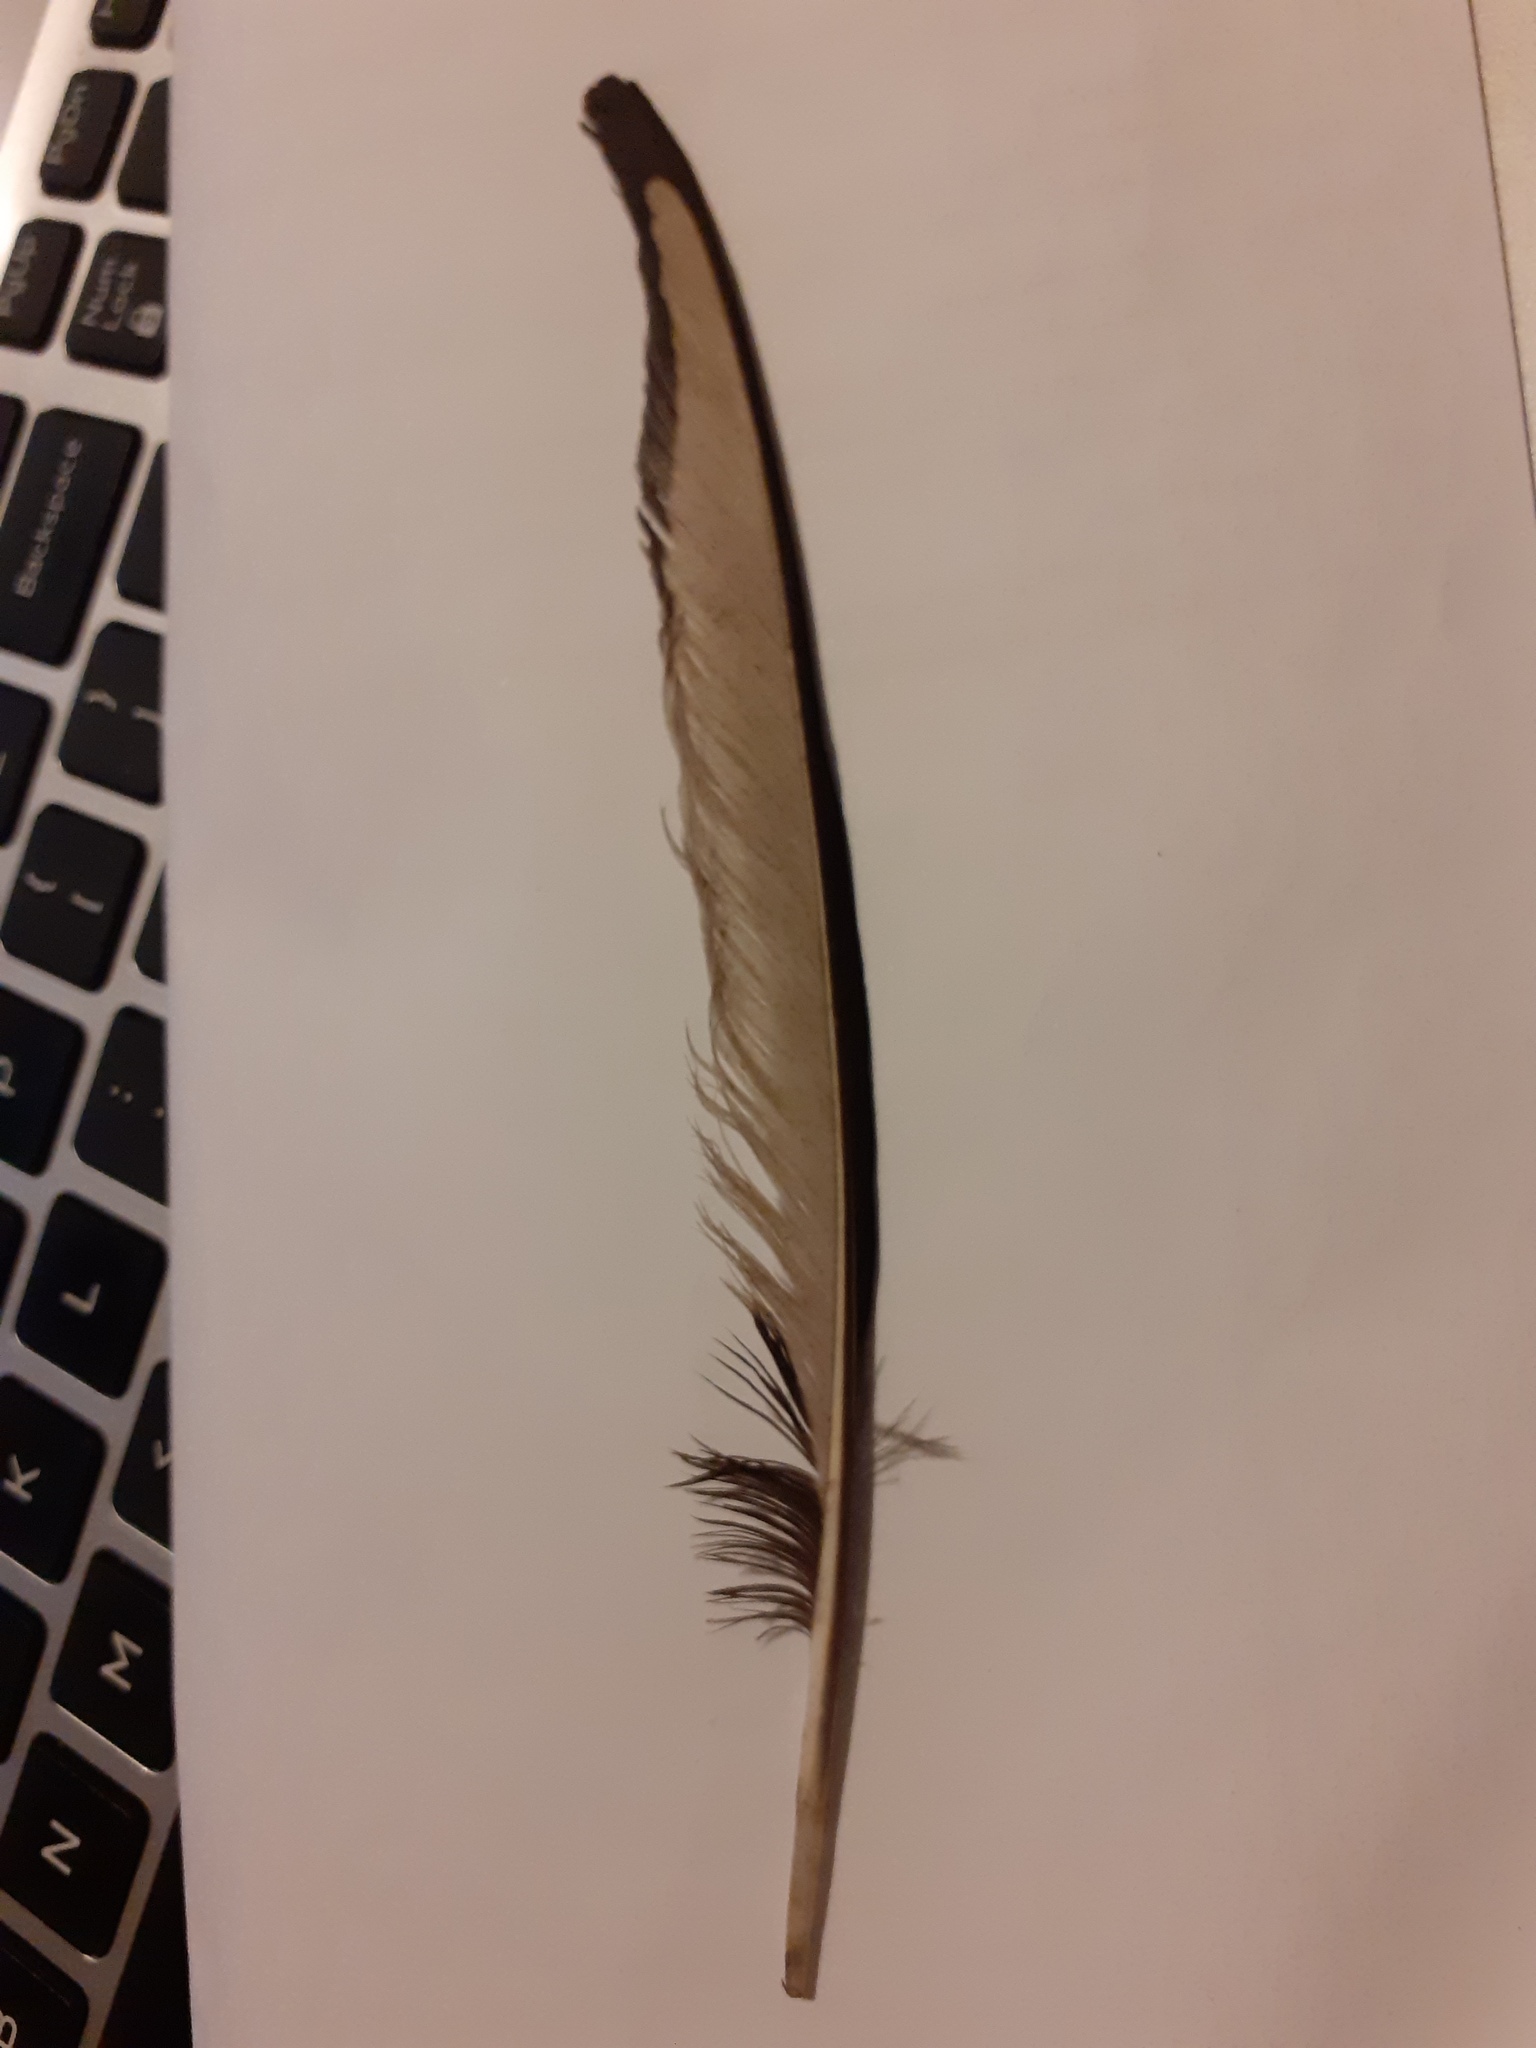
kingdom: Animalia
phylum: Chordata
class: Aves
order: Passeriformes
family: Corvidae
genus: Pica
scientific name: Pica pica
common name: Eurasian magpie
